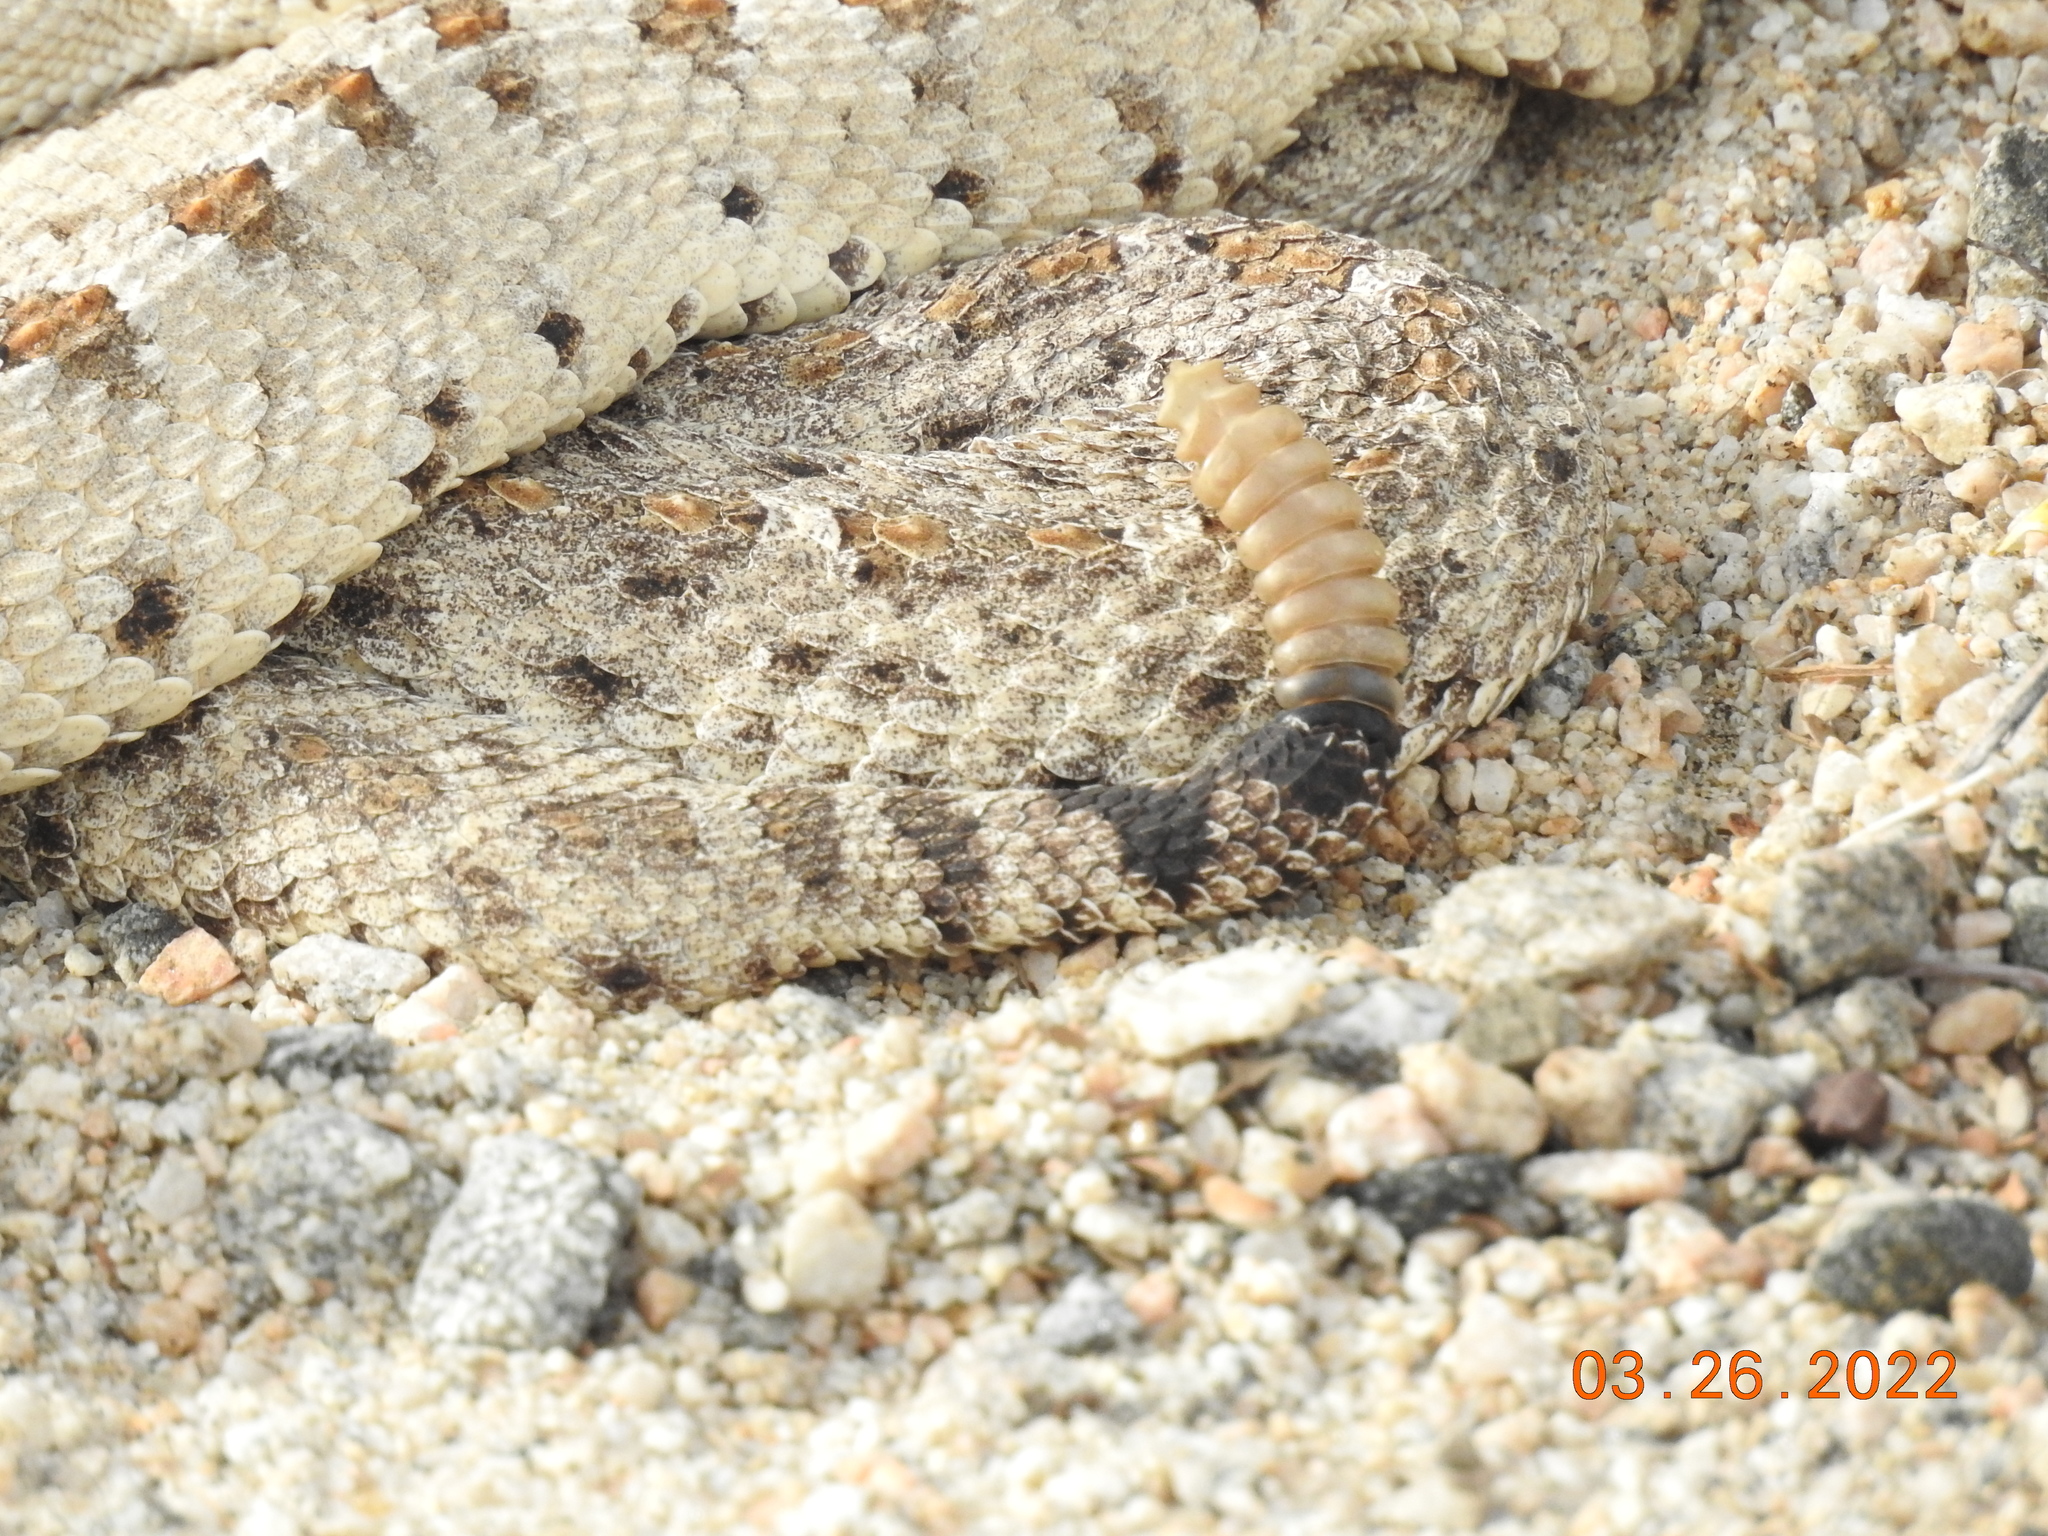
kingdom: Animalia
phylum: Chordata
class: Squamata
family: Viperidae
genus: Crotalus
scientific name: Crotalus cerastes
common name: Sidewinder
